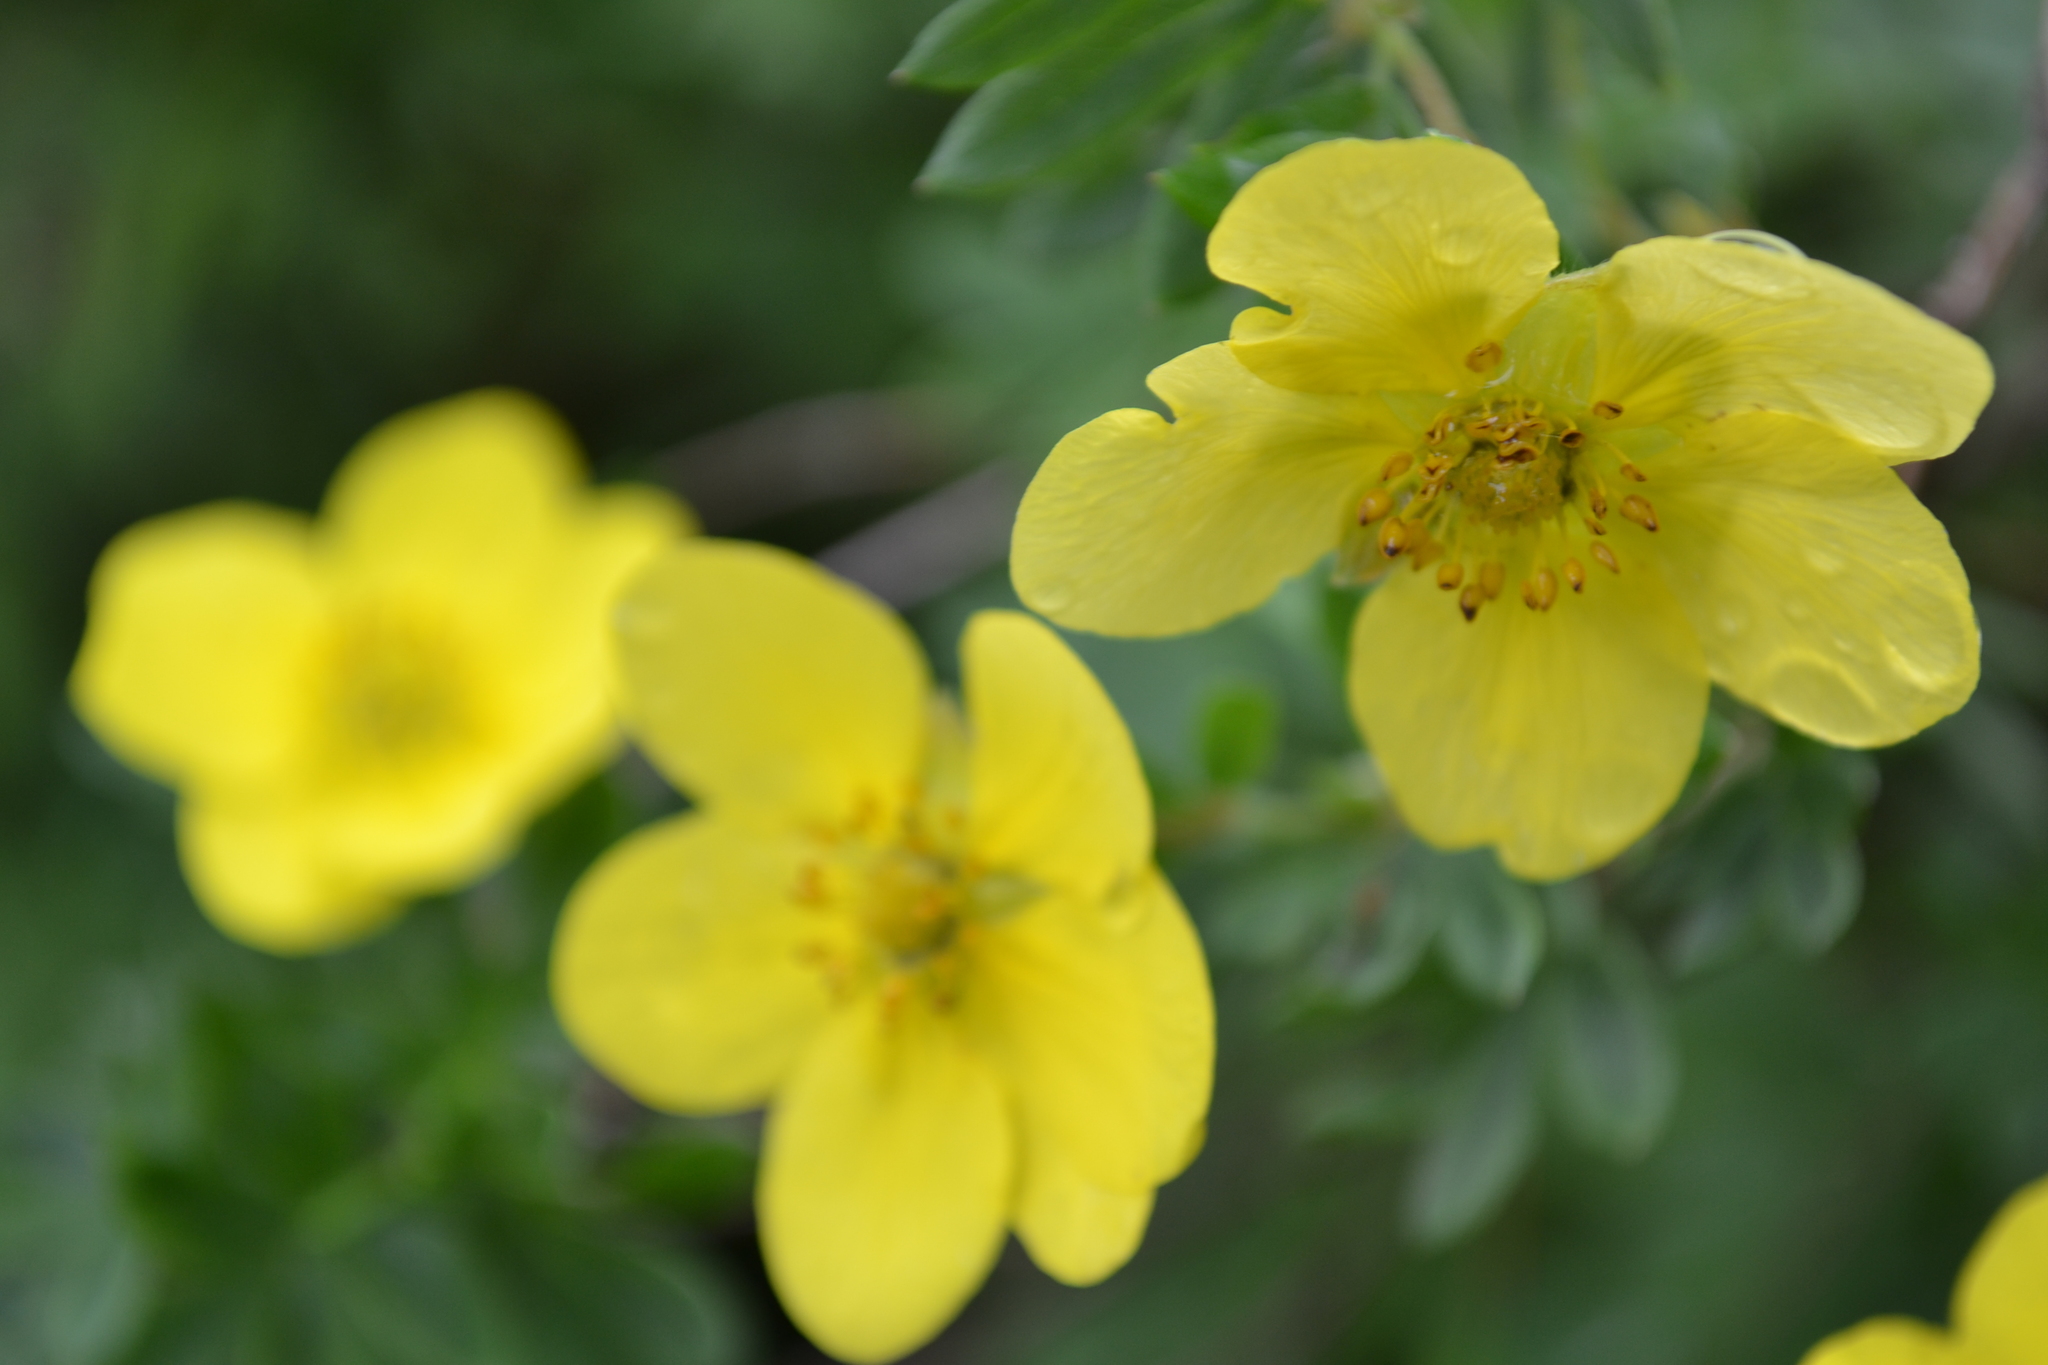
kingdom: Plantae
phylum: Tracheophyta
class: Magnoliopsida
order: Rosales
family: Rosaceae
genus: Dasiphora
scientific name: Dasiphora fruticosa
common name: Shrubby cinquefoil
